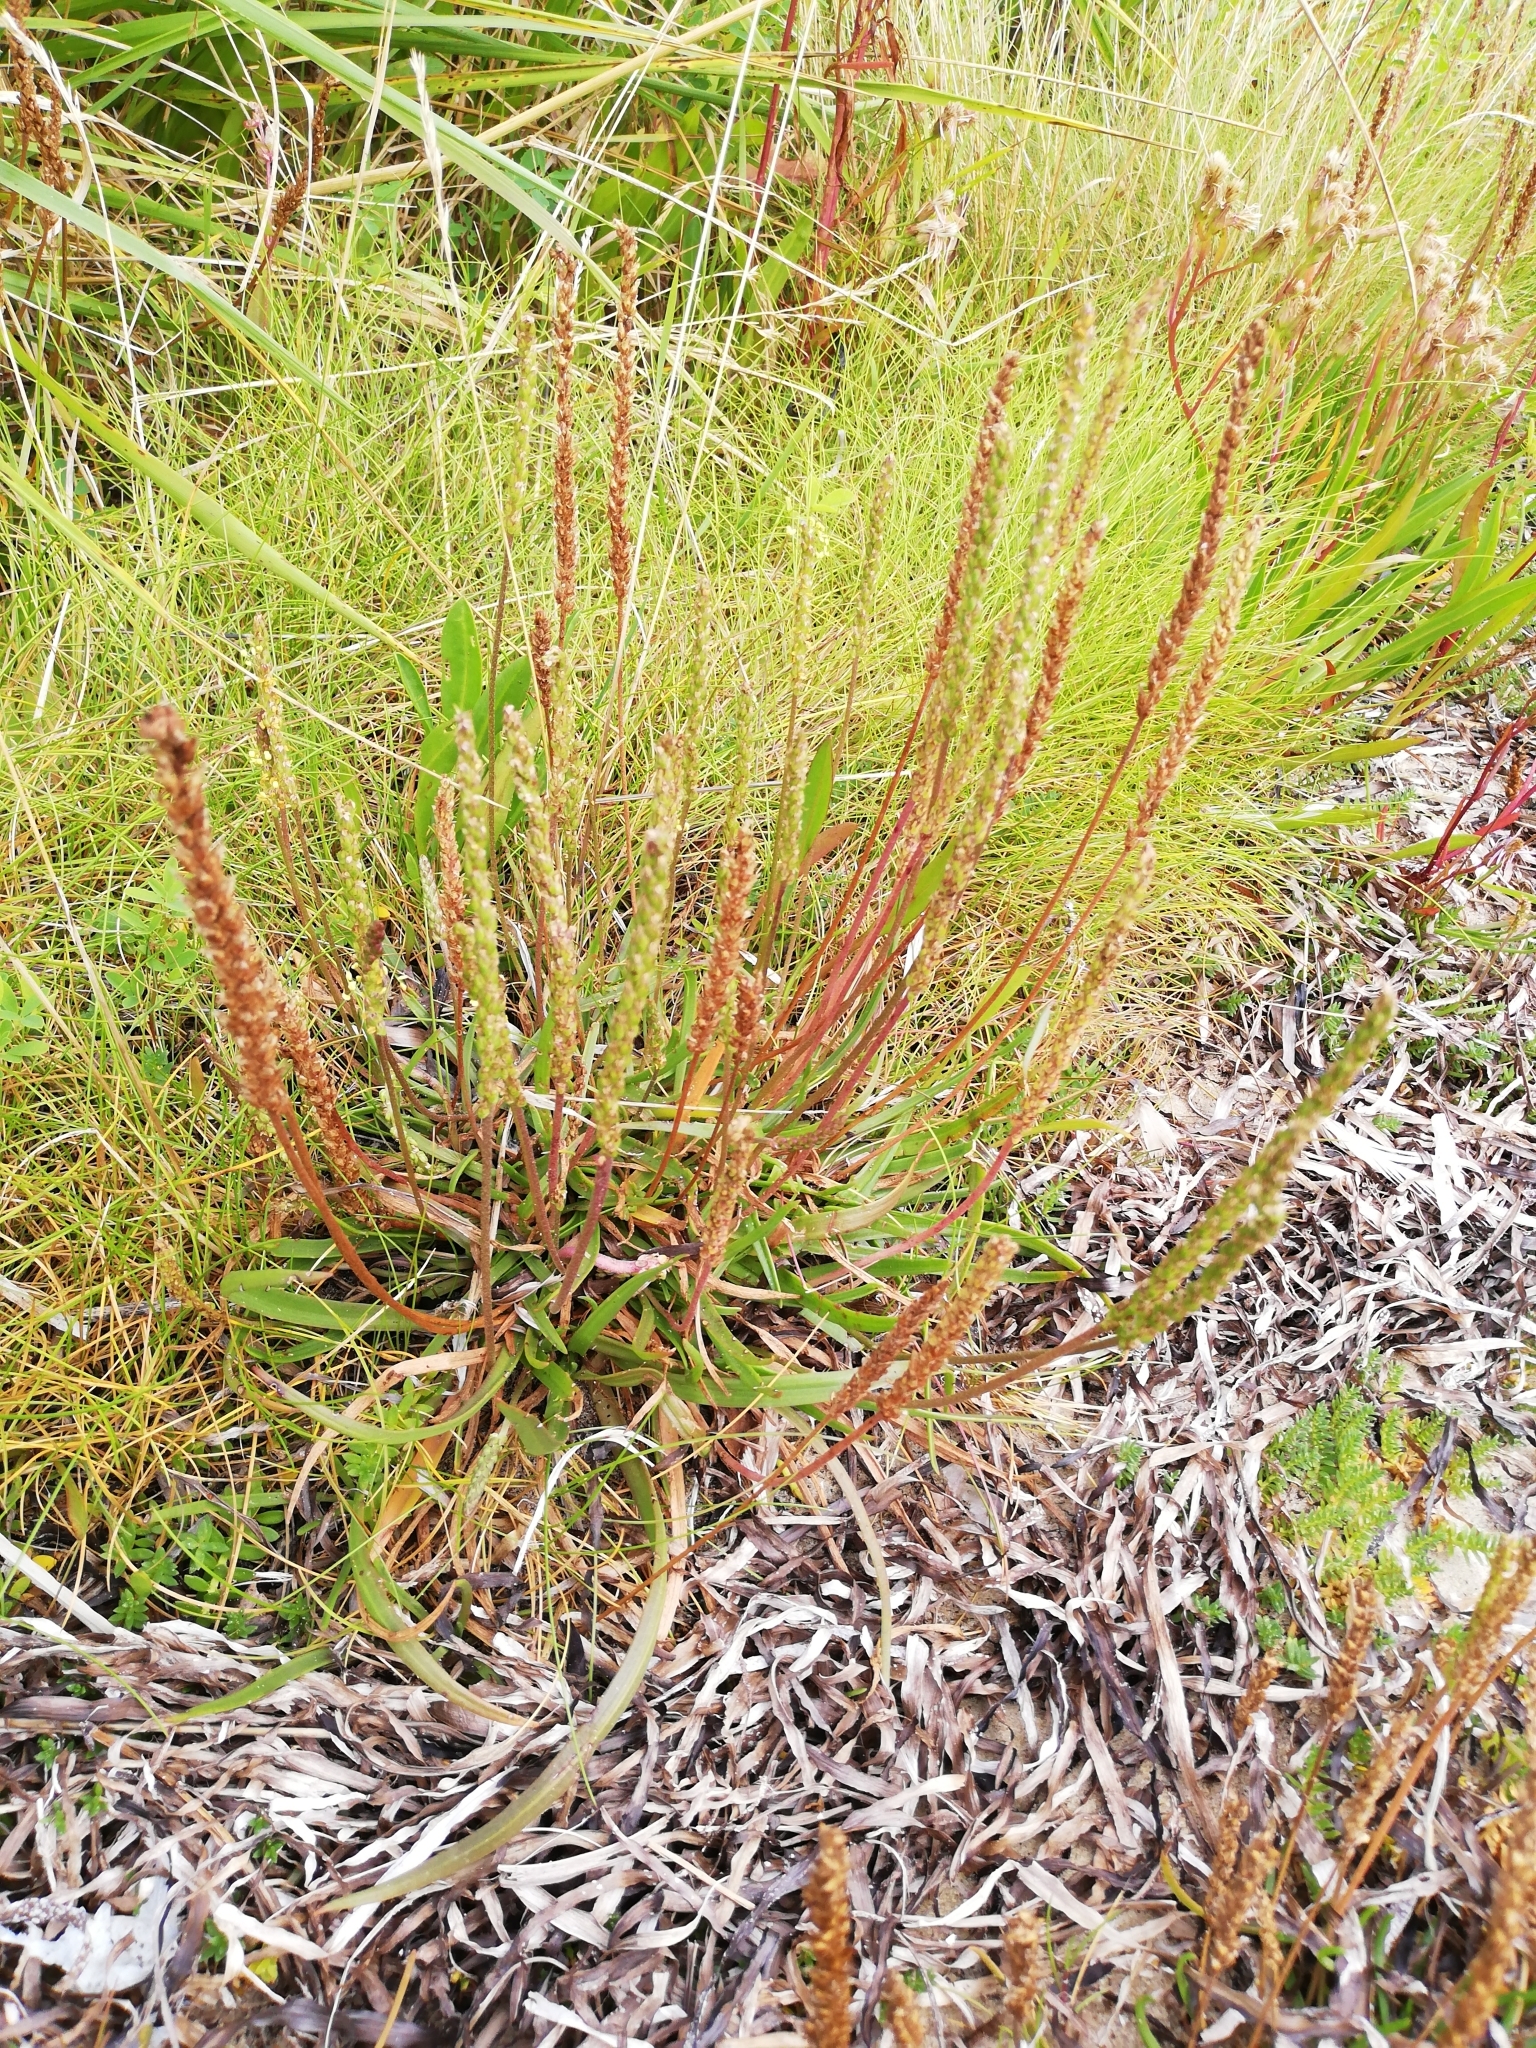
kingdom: Plantae
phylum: Tracheophyta
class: Magnoliopsida
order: Lamiales
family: Plantaginaceae
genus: Plantago
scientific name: Plantago maritima
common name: Sea plantain
